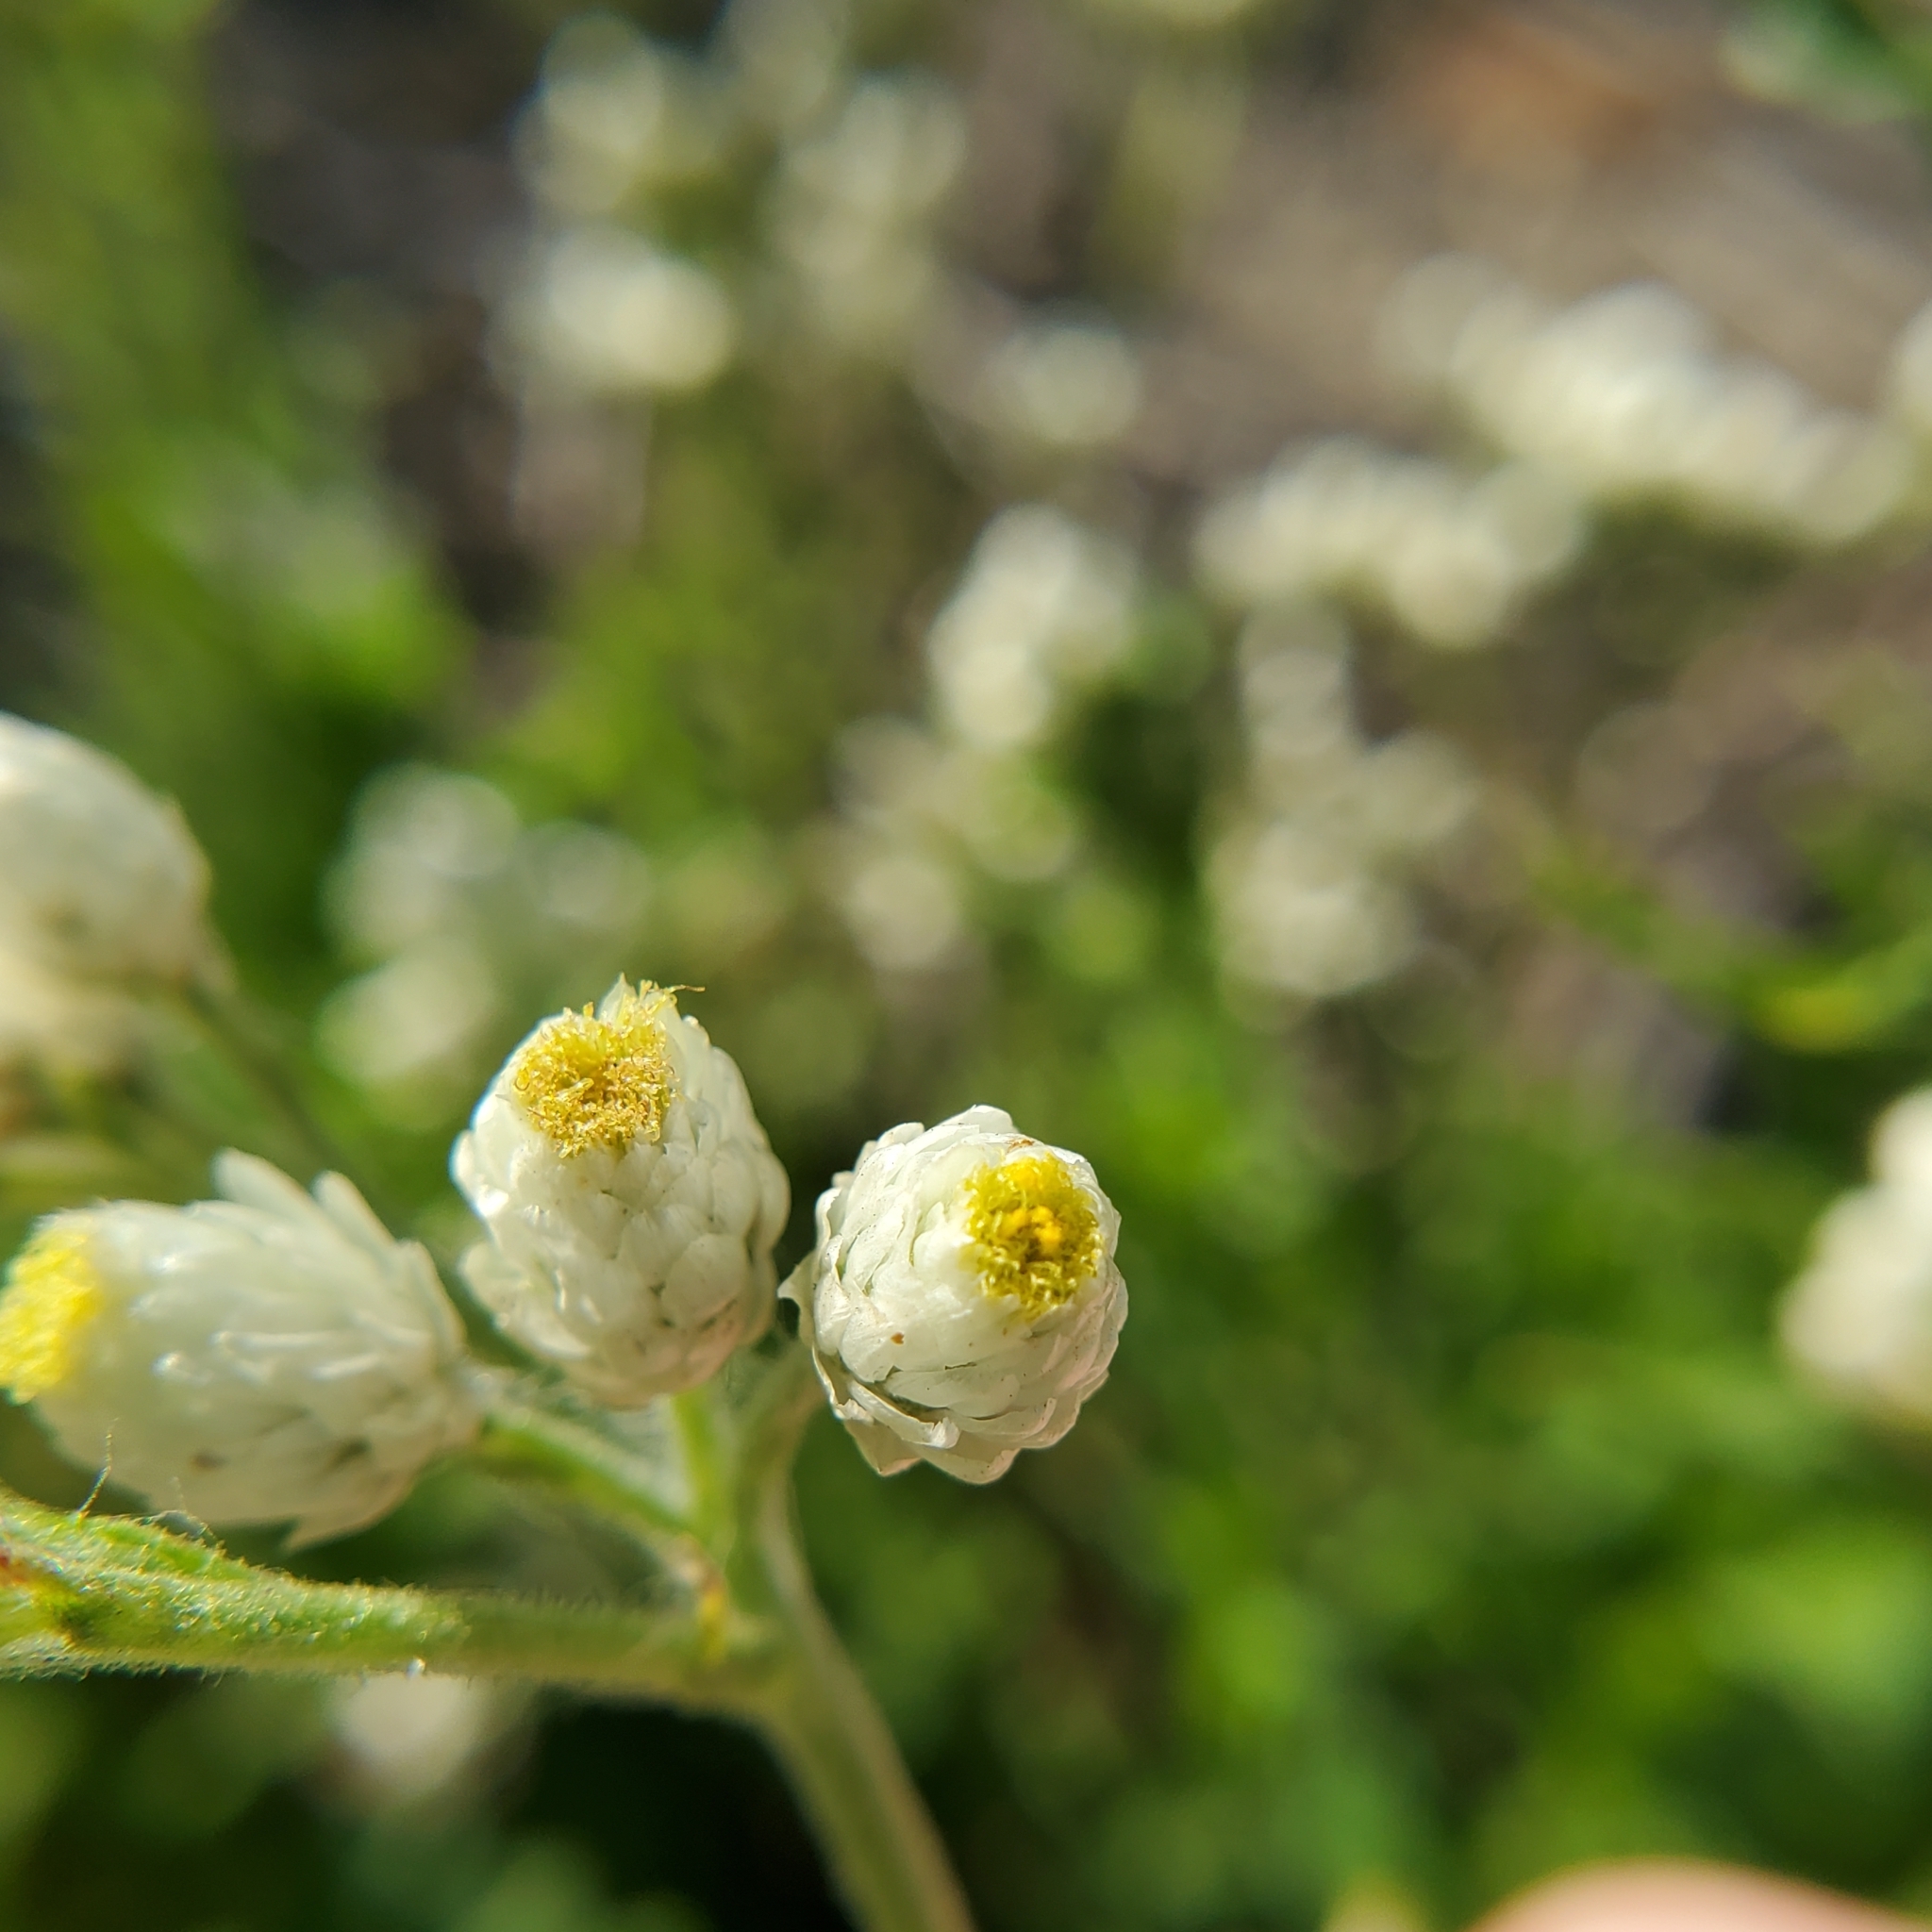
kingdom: Plantae
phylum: Tracheophyta
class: Magnoliopsida
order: Asterales
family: Asteraceae
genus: Pseudognaphalium
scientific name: Pseudognaphalium californicum
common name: California rabbit-tobacco
